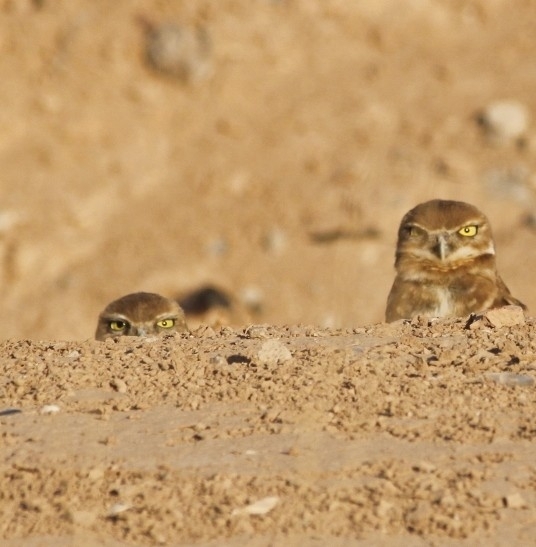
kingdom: Animalia
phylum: Chordata
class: Aves
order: Strigiformes
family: Strigidae
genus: Athene
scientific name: Athene cunicularia
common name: Burrowing owl
